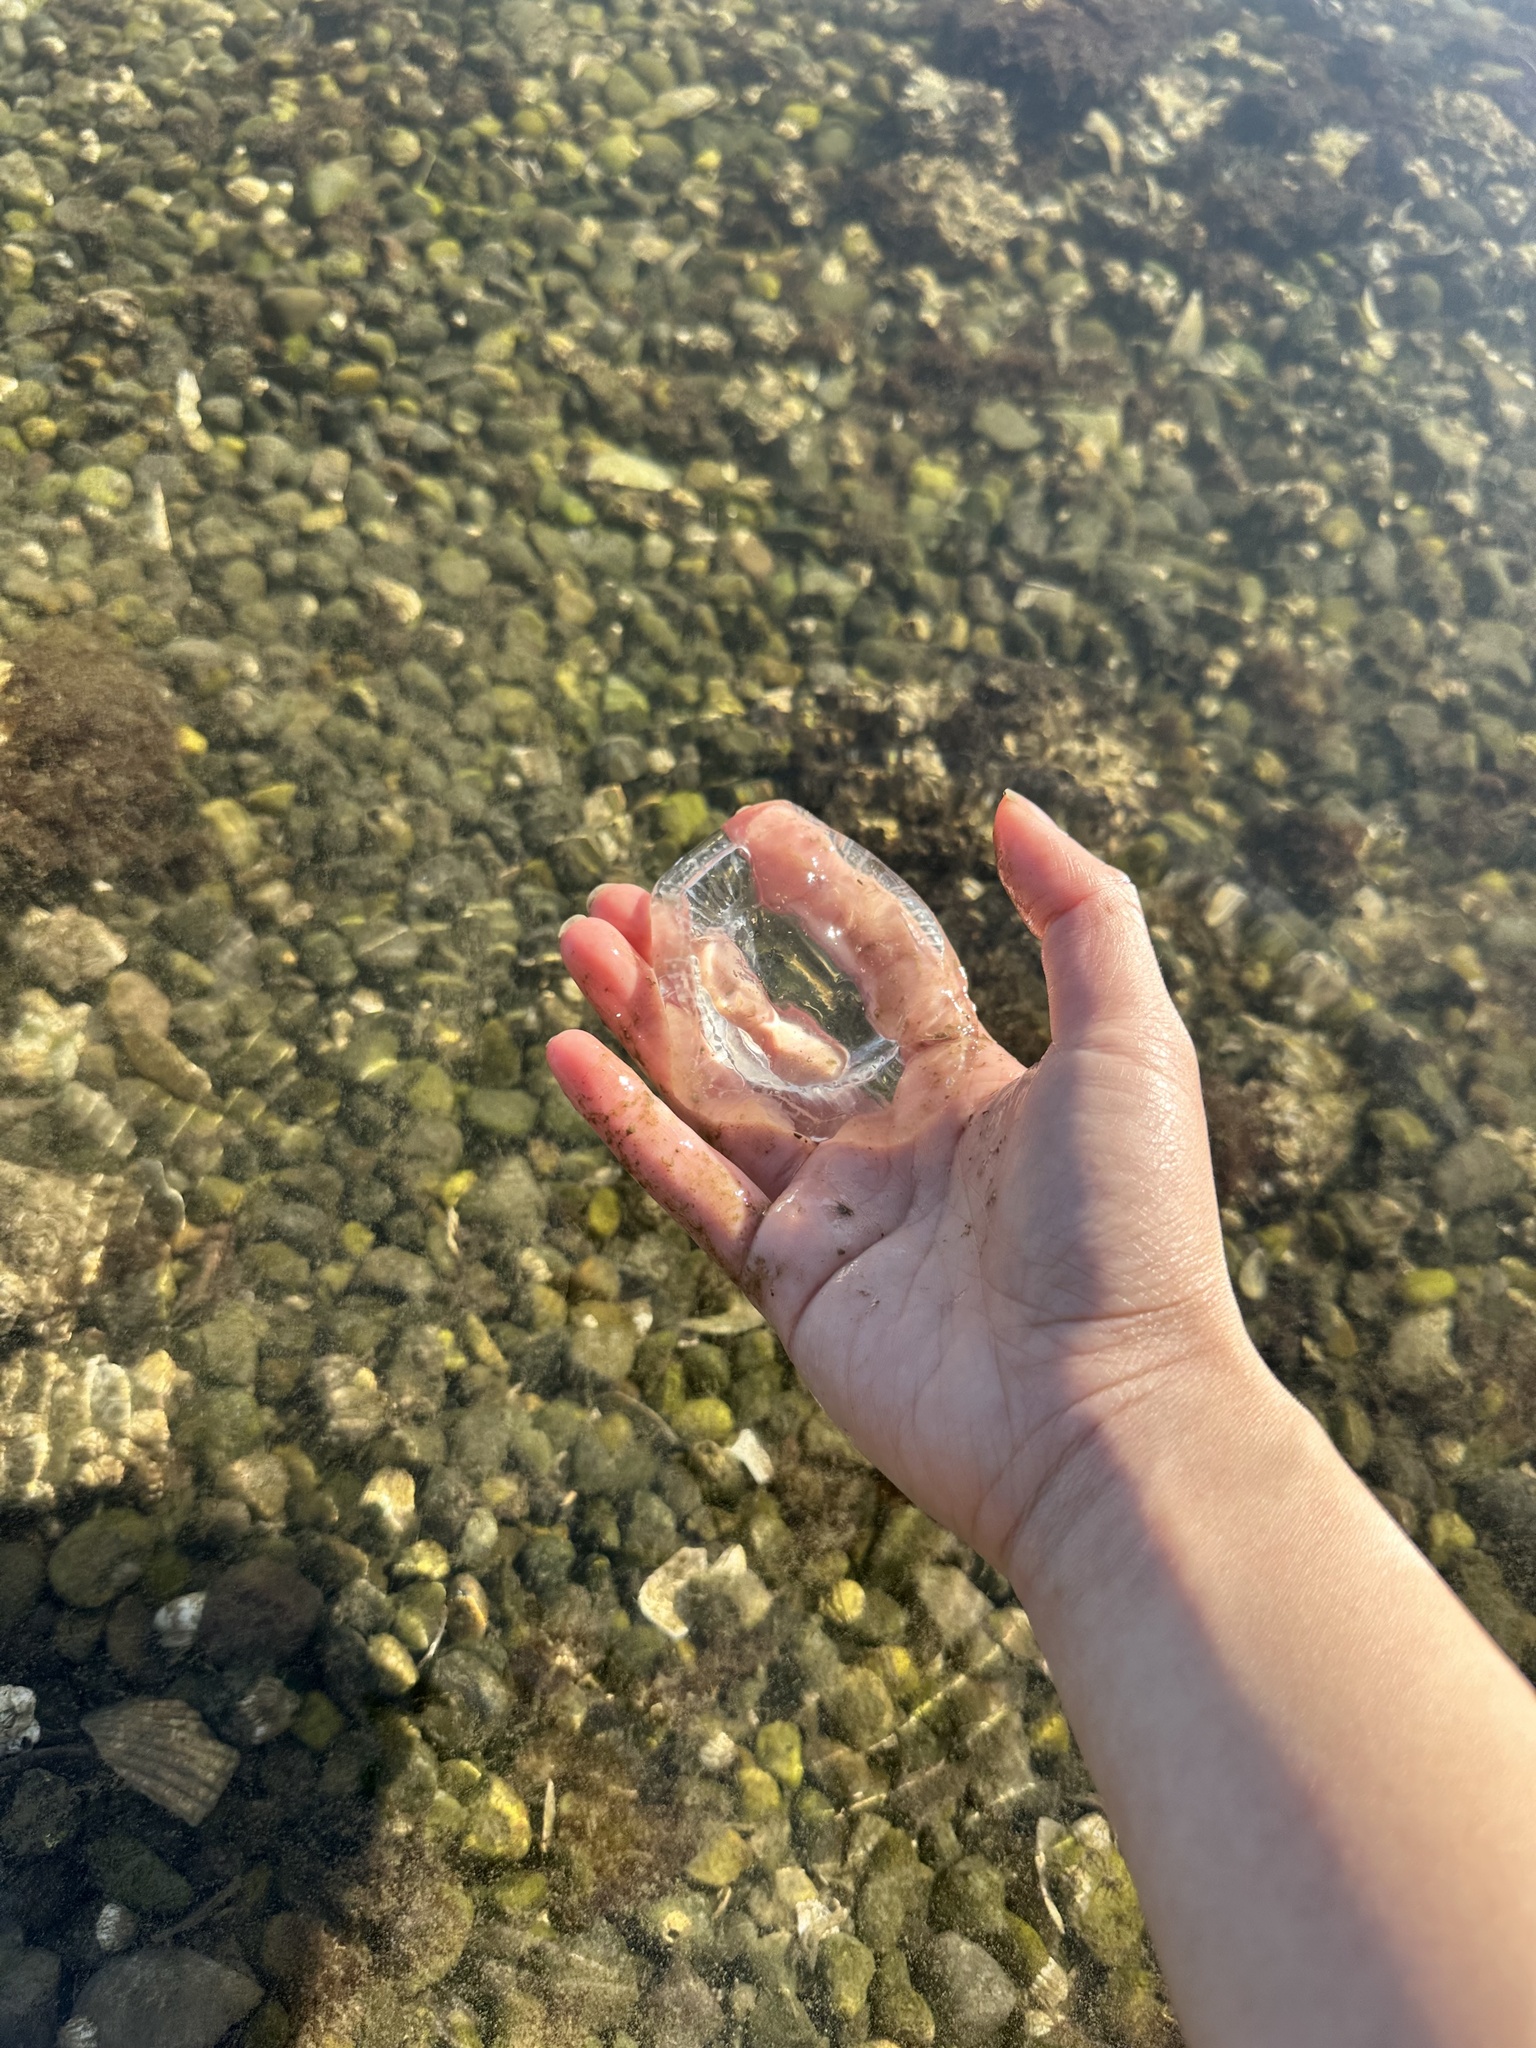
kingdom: Animalia
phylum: Cnidaria
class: Hydrozoa
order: Leptothecata
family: Aequoreidae
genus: Aequorea
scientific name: Aequorea victoria
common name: Water jellyfish
